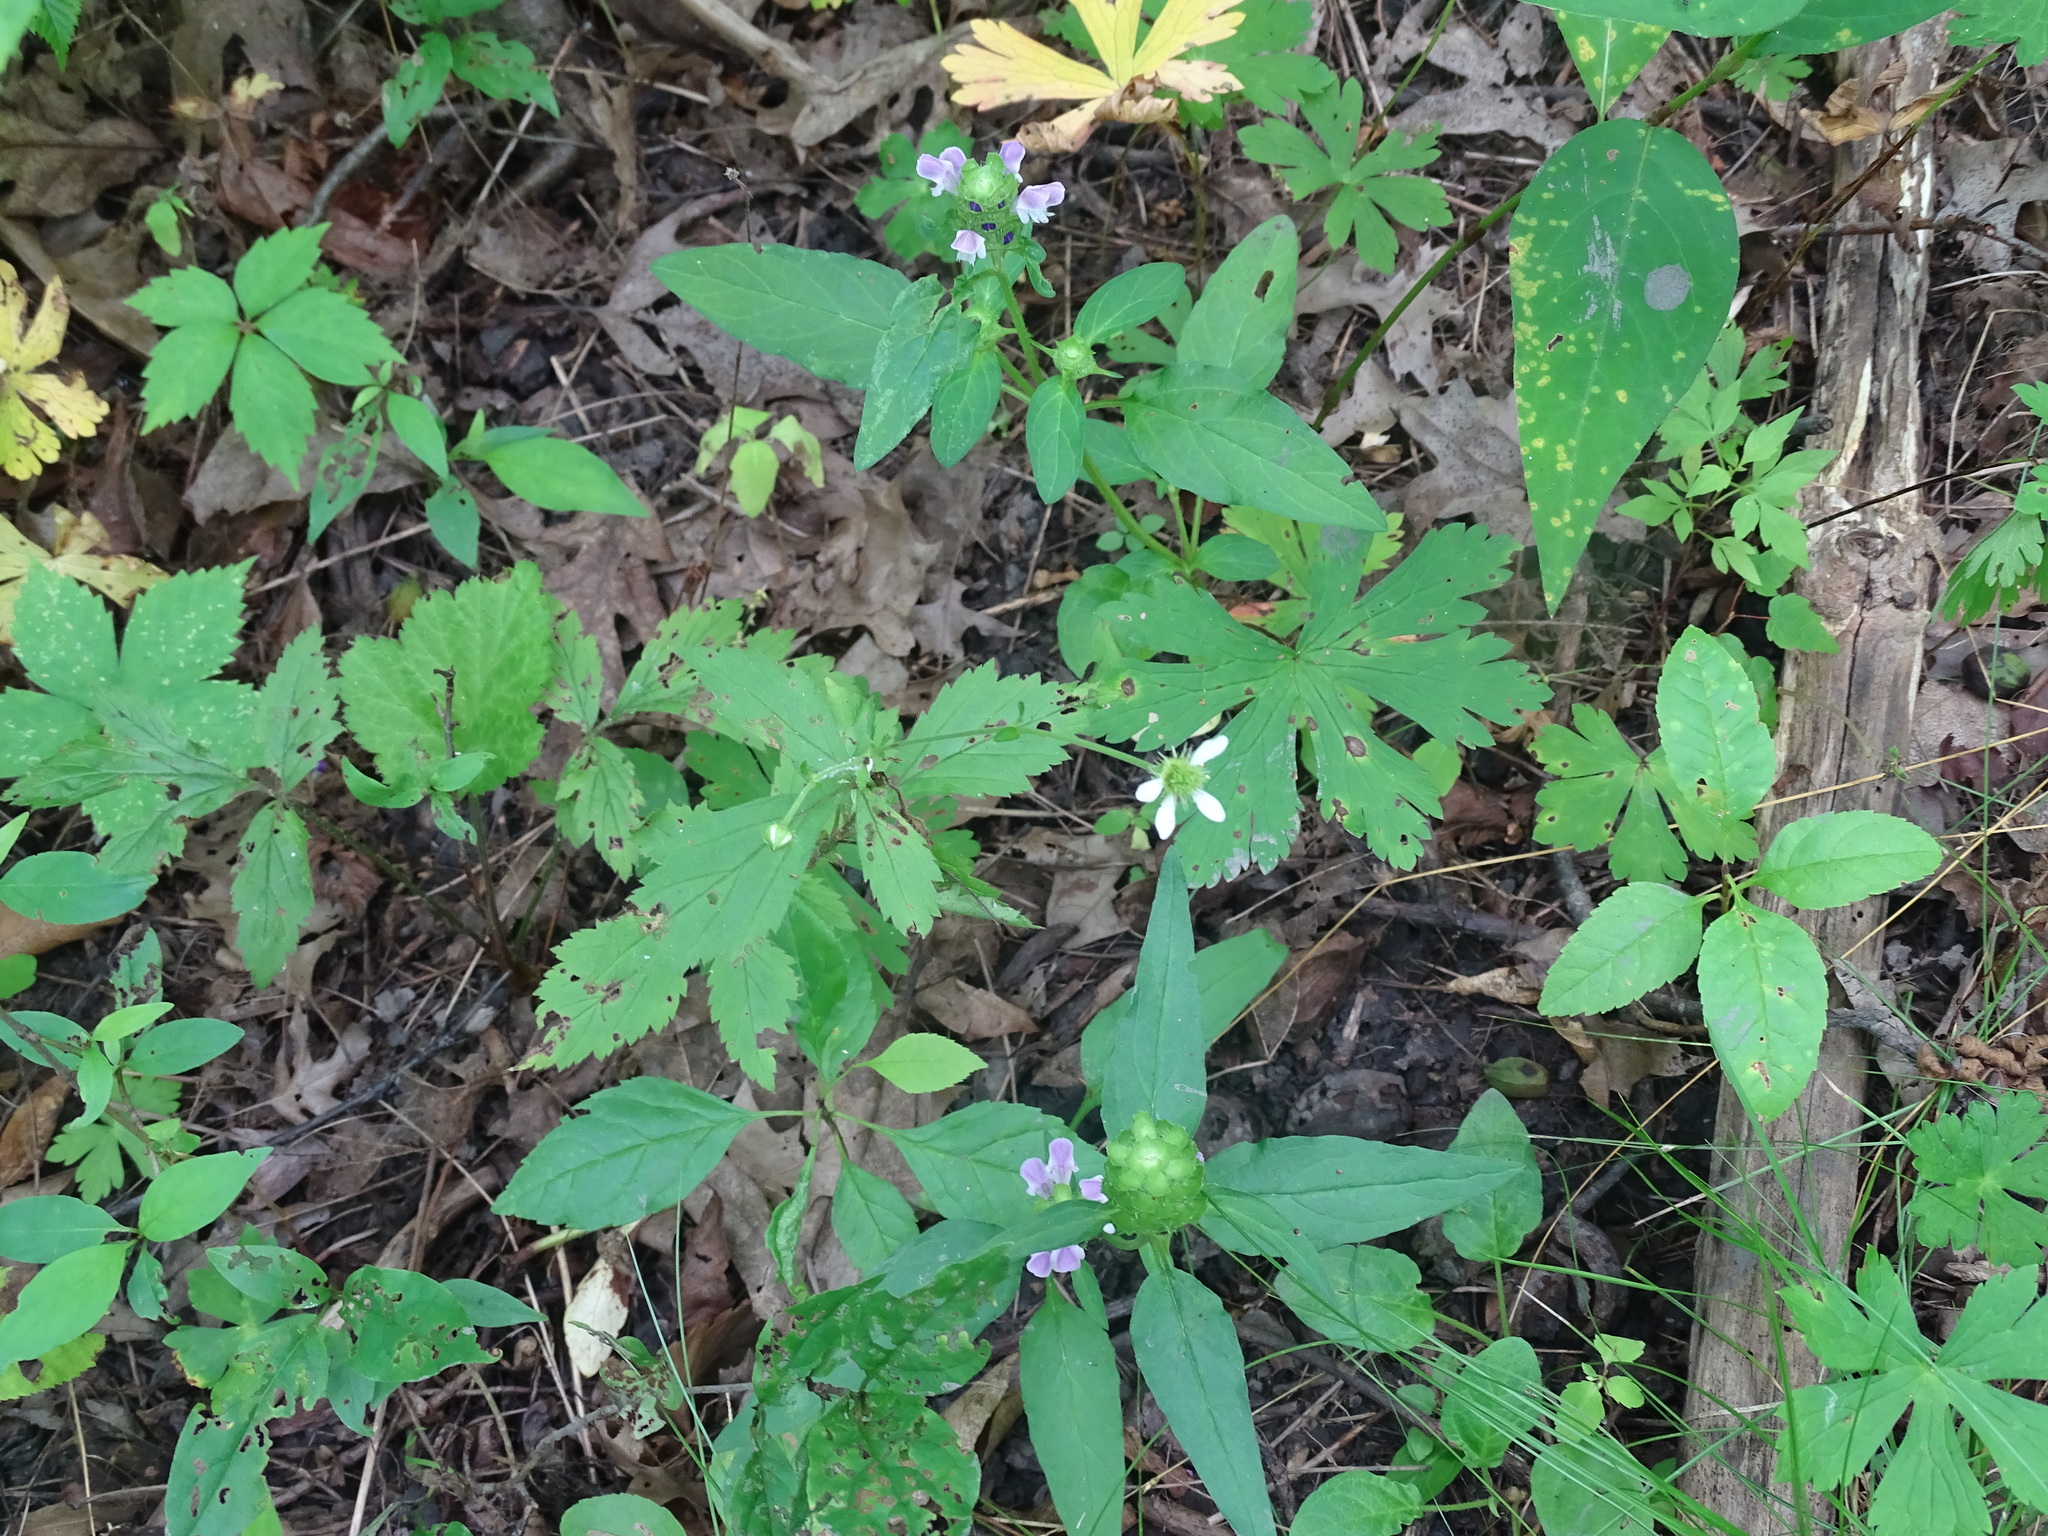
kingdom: Plantae
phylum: Tracheophyta
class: Magnoliopsida
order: Rosales
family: Rosaceae
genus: Geum
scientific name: Geum canadense
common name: White avens
